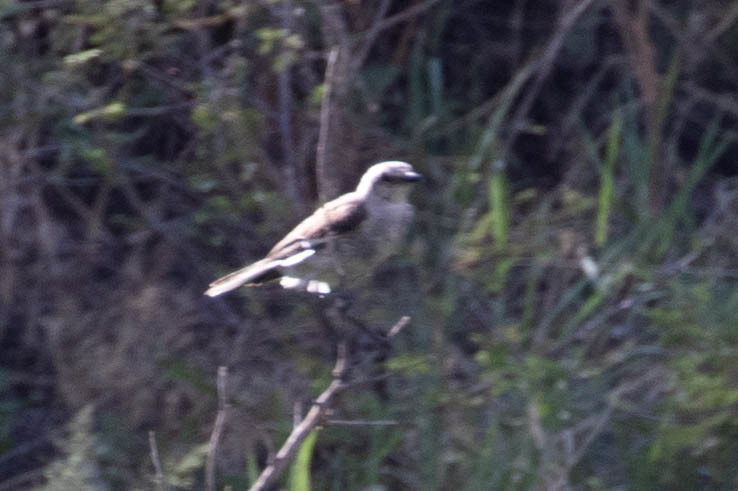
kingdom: Animalia
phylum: Chordata
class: Aves
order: Passeriformes
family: Mimidae
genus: Mimus
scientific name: Mimus polyglottos
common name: Northern mockingbird
